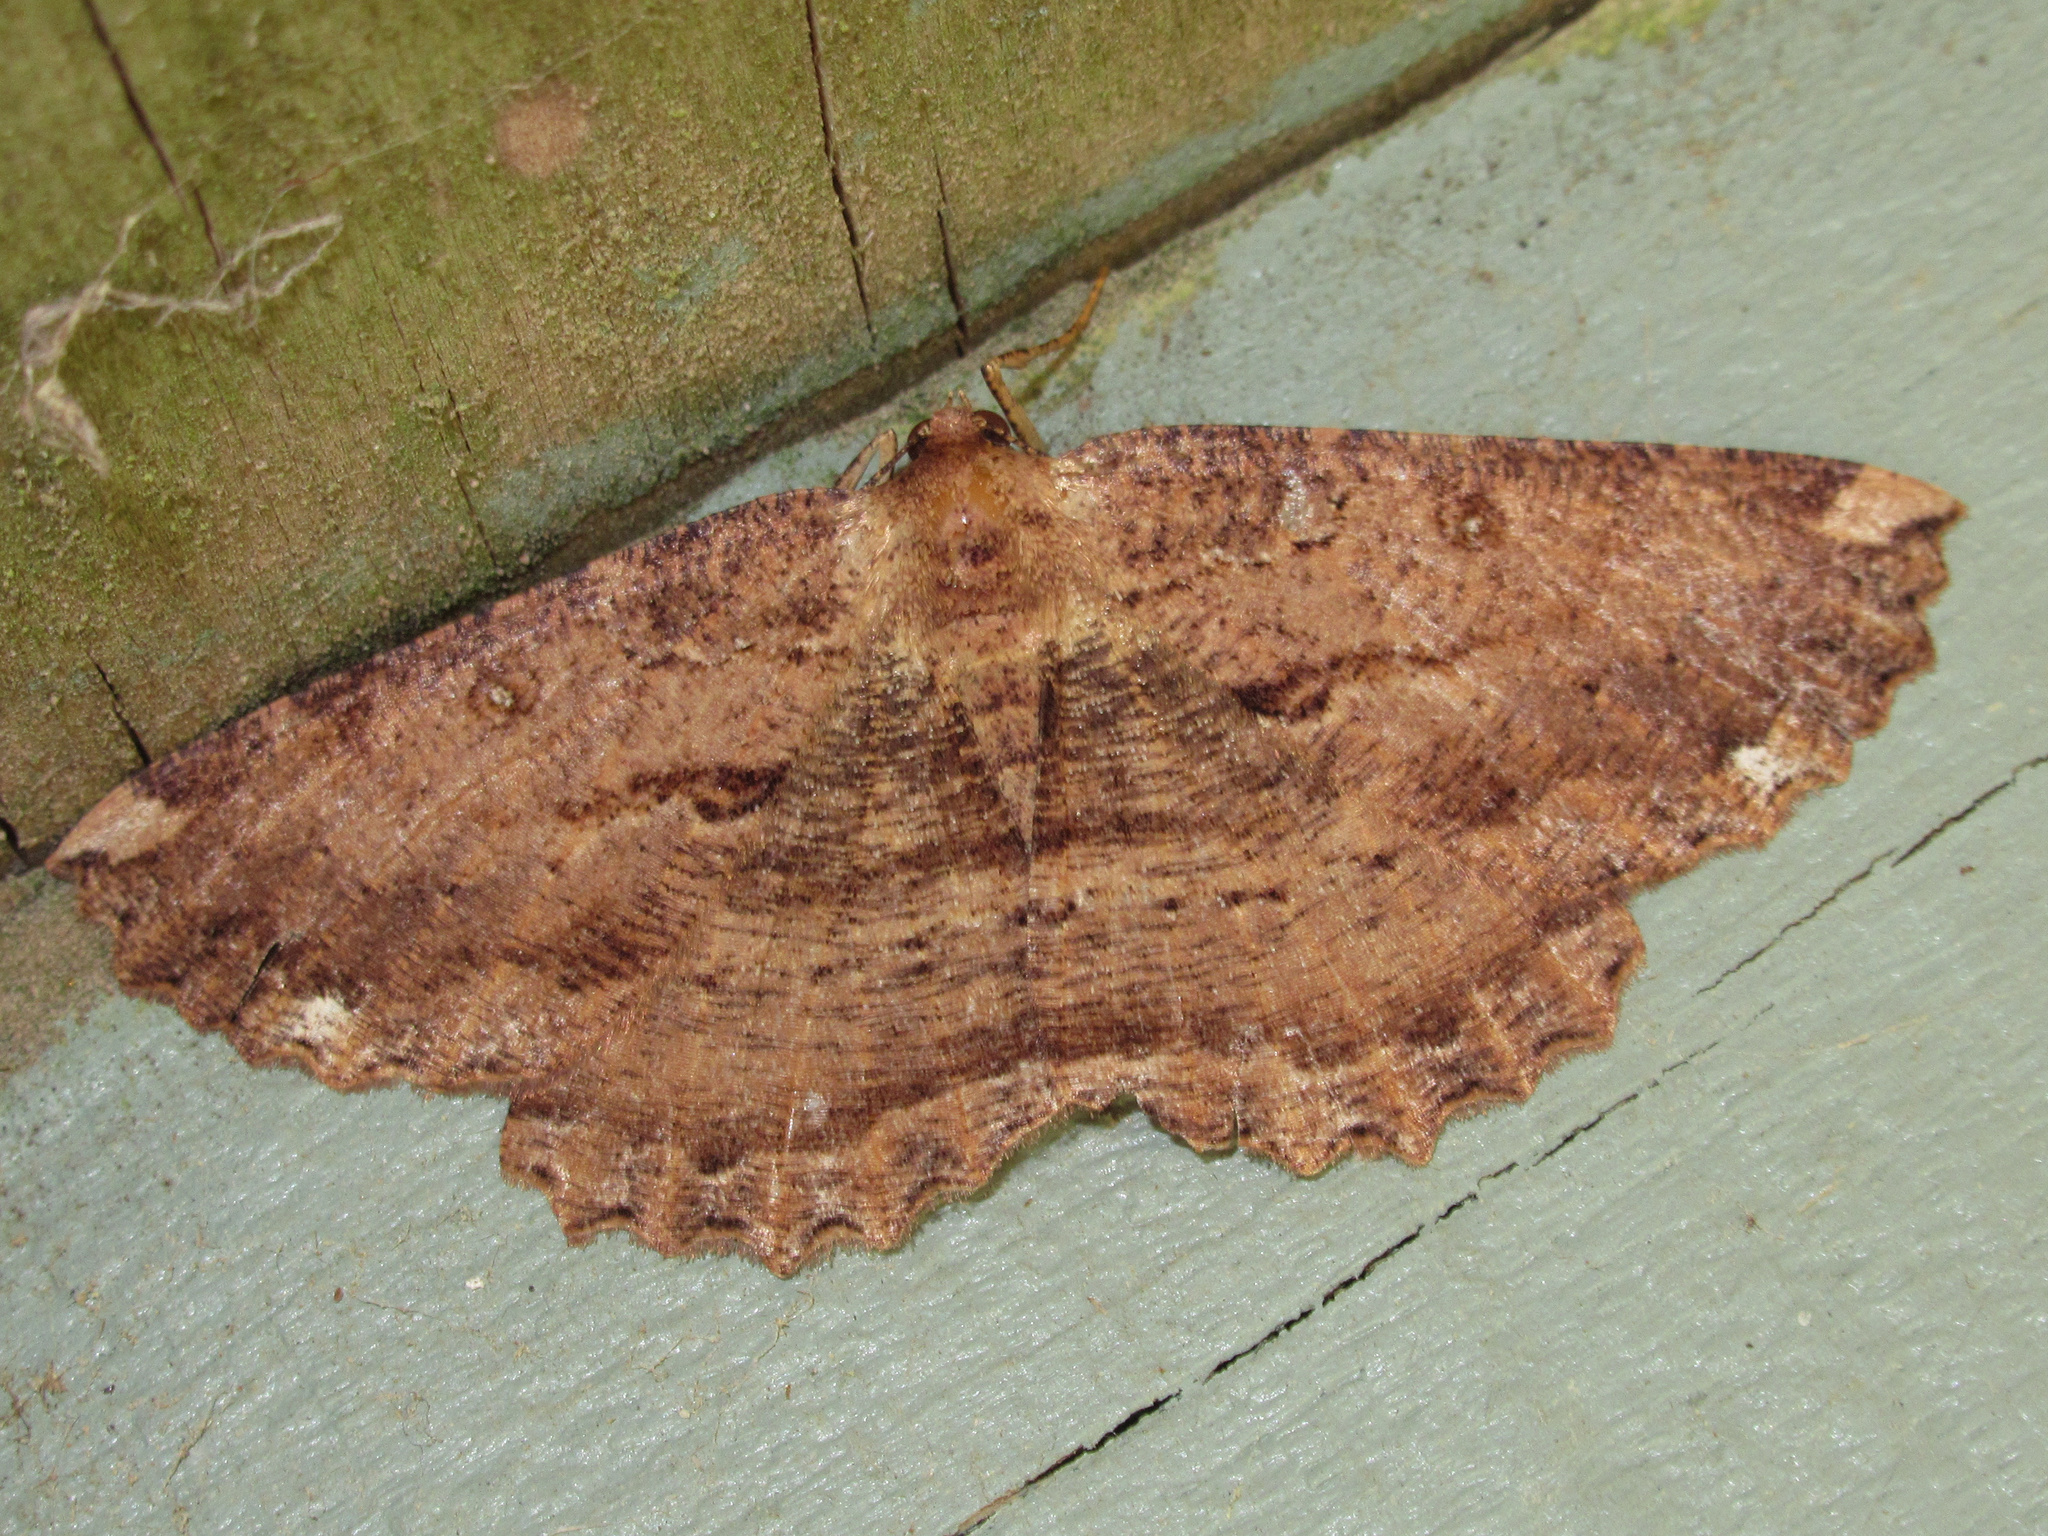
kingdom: Animalia
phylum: Arthropoda
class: Insecta
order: Lepidoptera
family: Geometridae
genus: Gellonia
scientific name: Gellonia dejectaria
